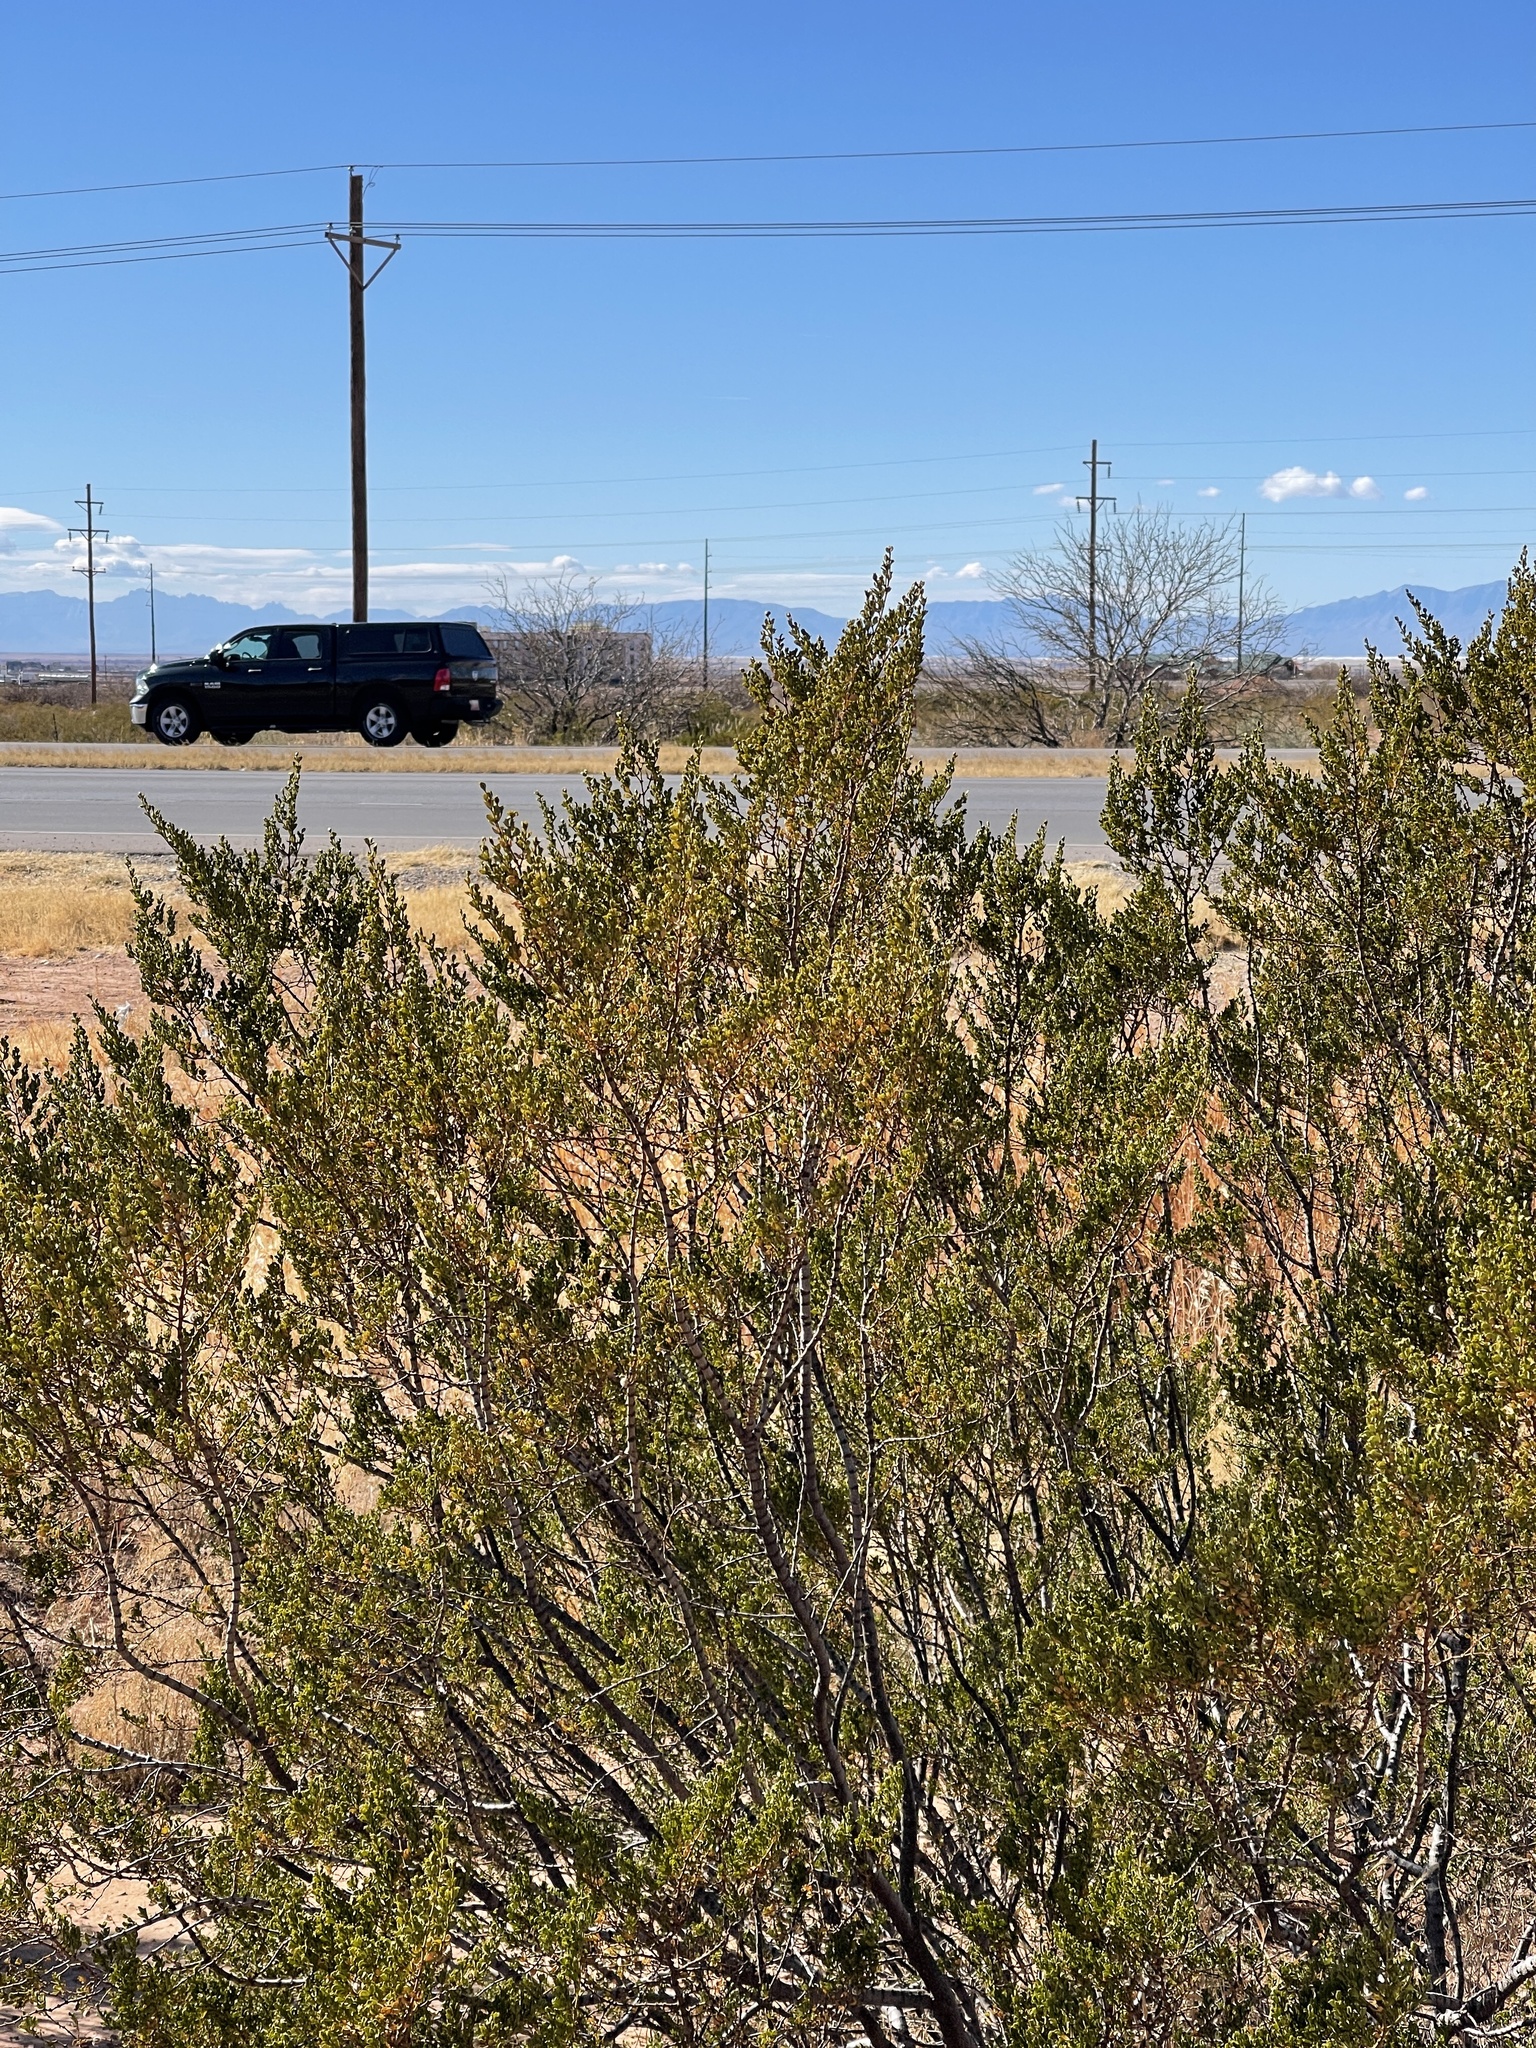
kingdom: Plantae
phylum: Tracheophyta
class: Magnoliopsida
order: Zygophyllales
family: Zygophyllaceae
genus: Larrea
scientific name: Larrea tridentata
